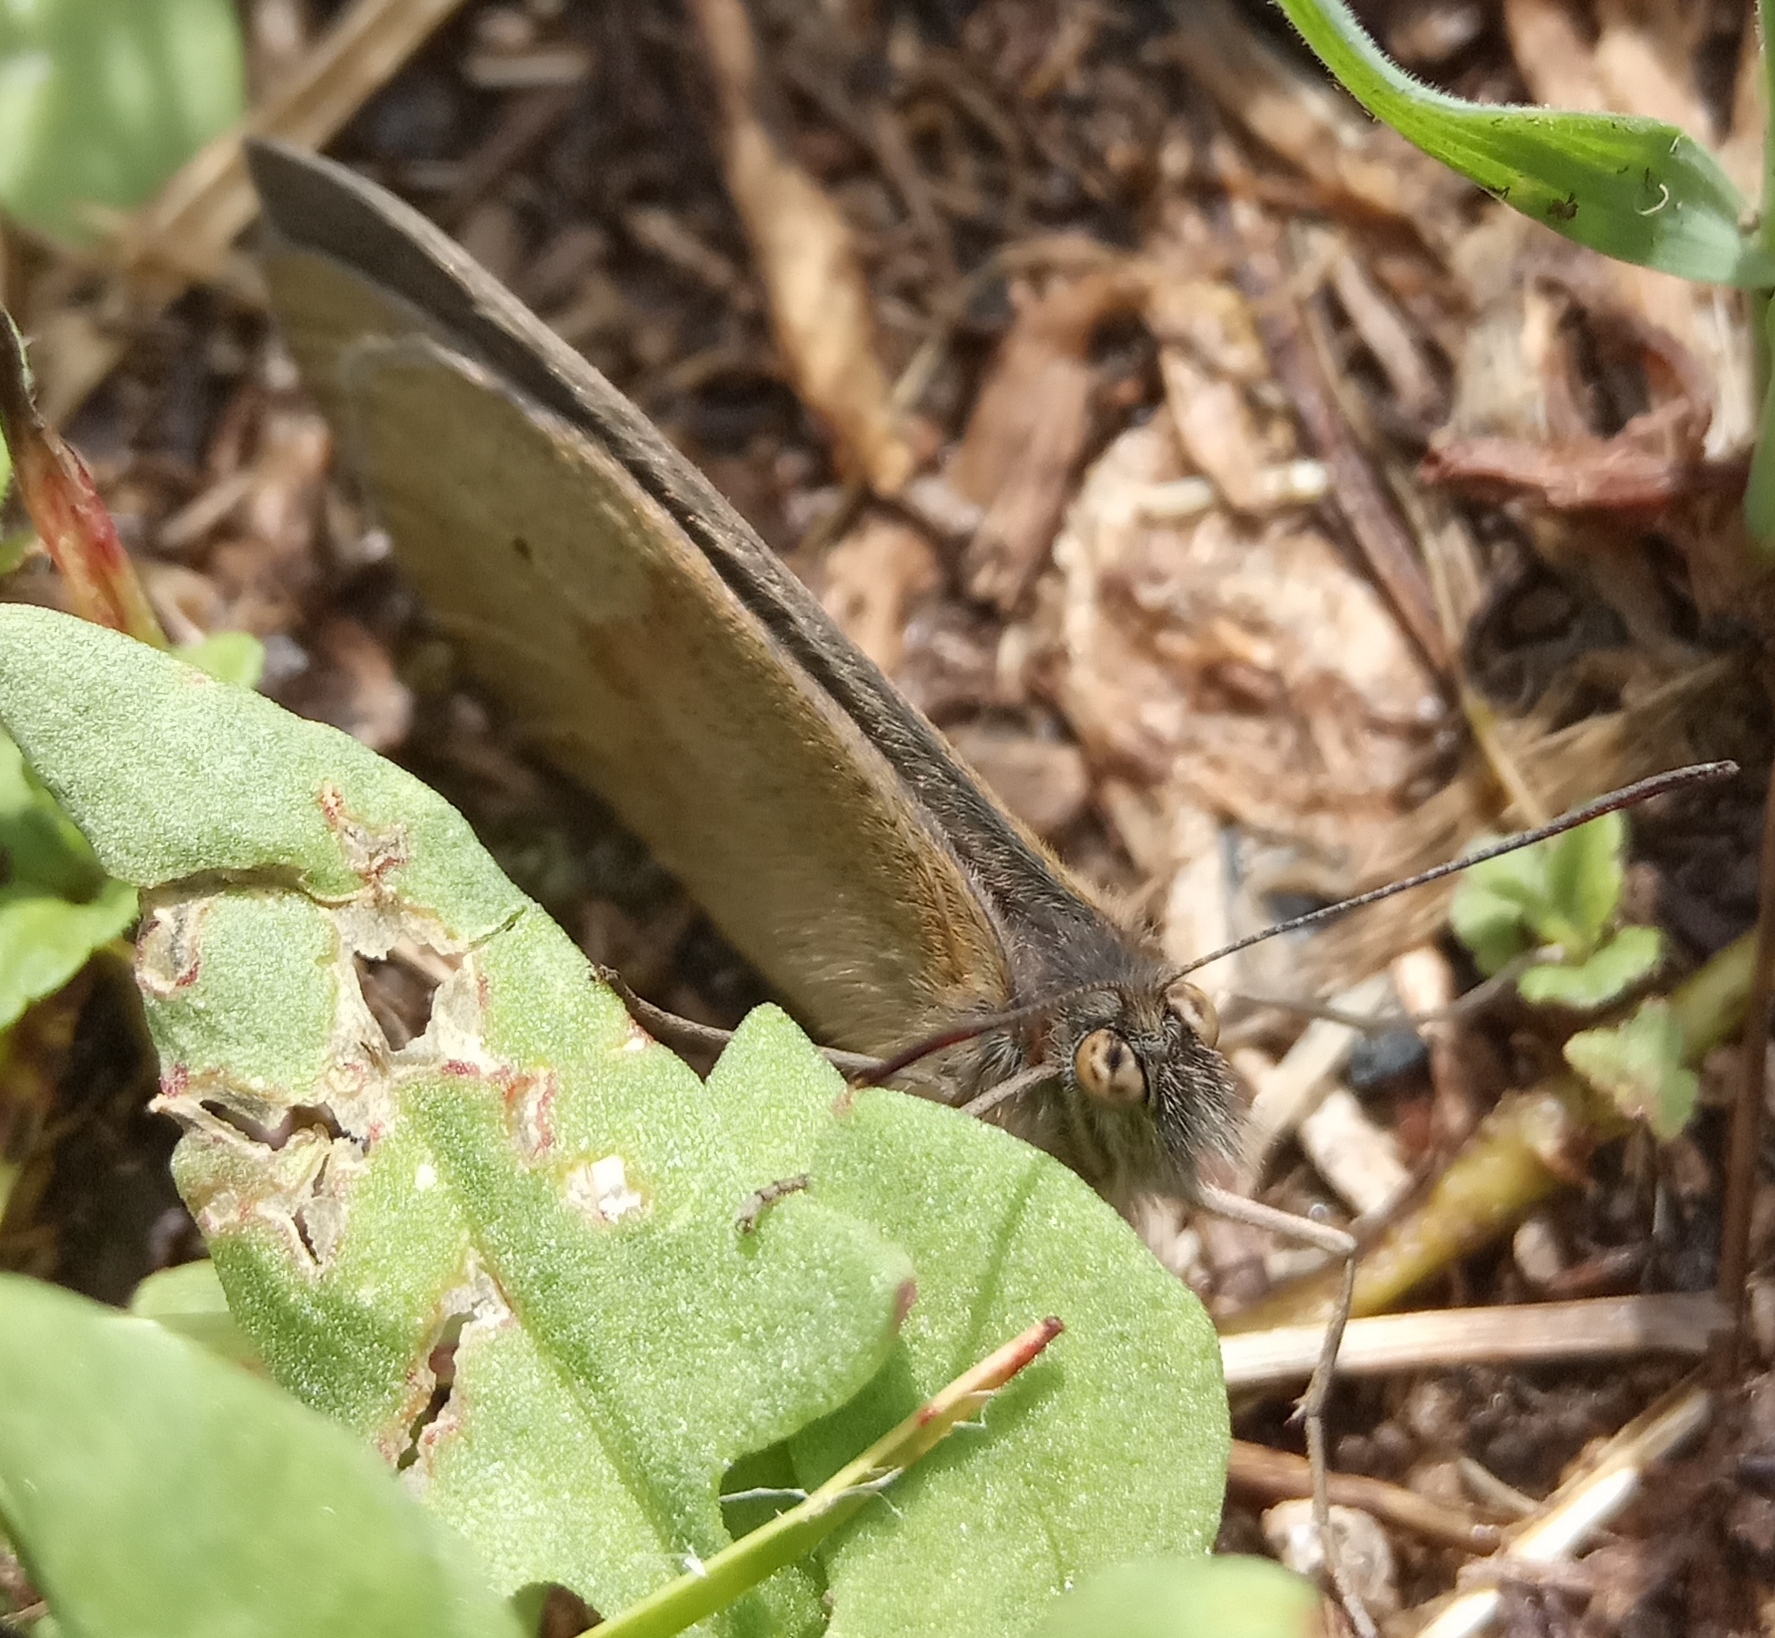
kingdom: Animalia
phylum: Arthropoda
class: Insecta
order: Lepidoptera
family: Nymphalidae
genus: Maniola
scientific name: Maniola jurtina
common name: Meadow brown
